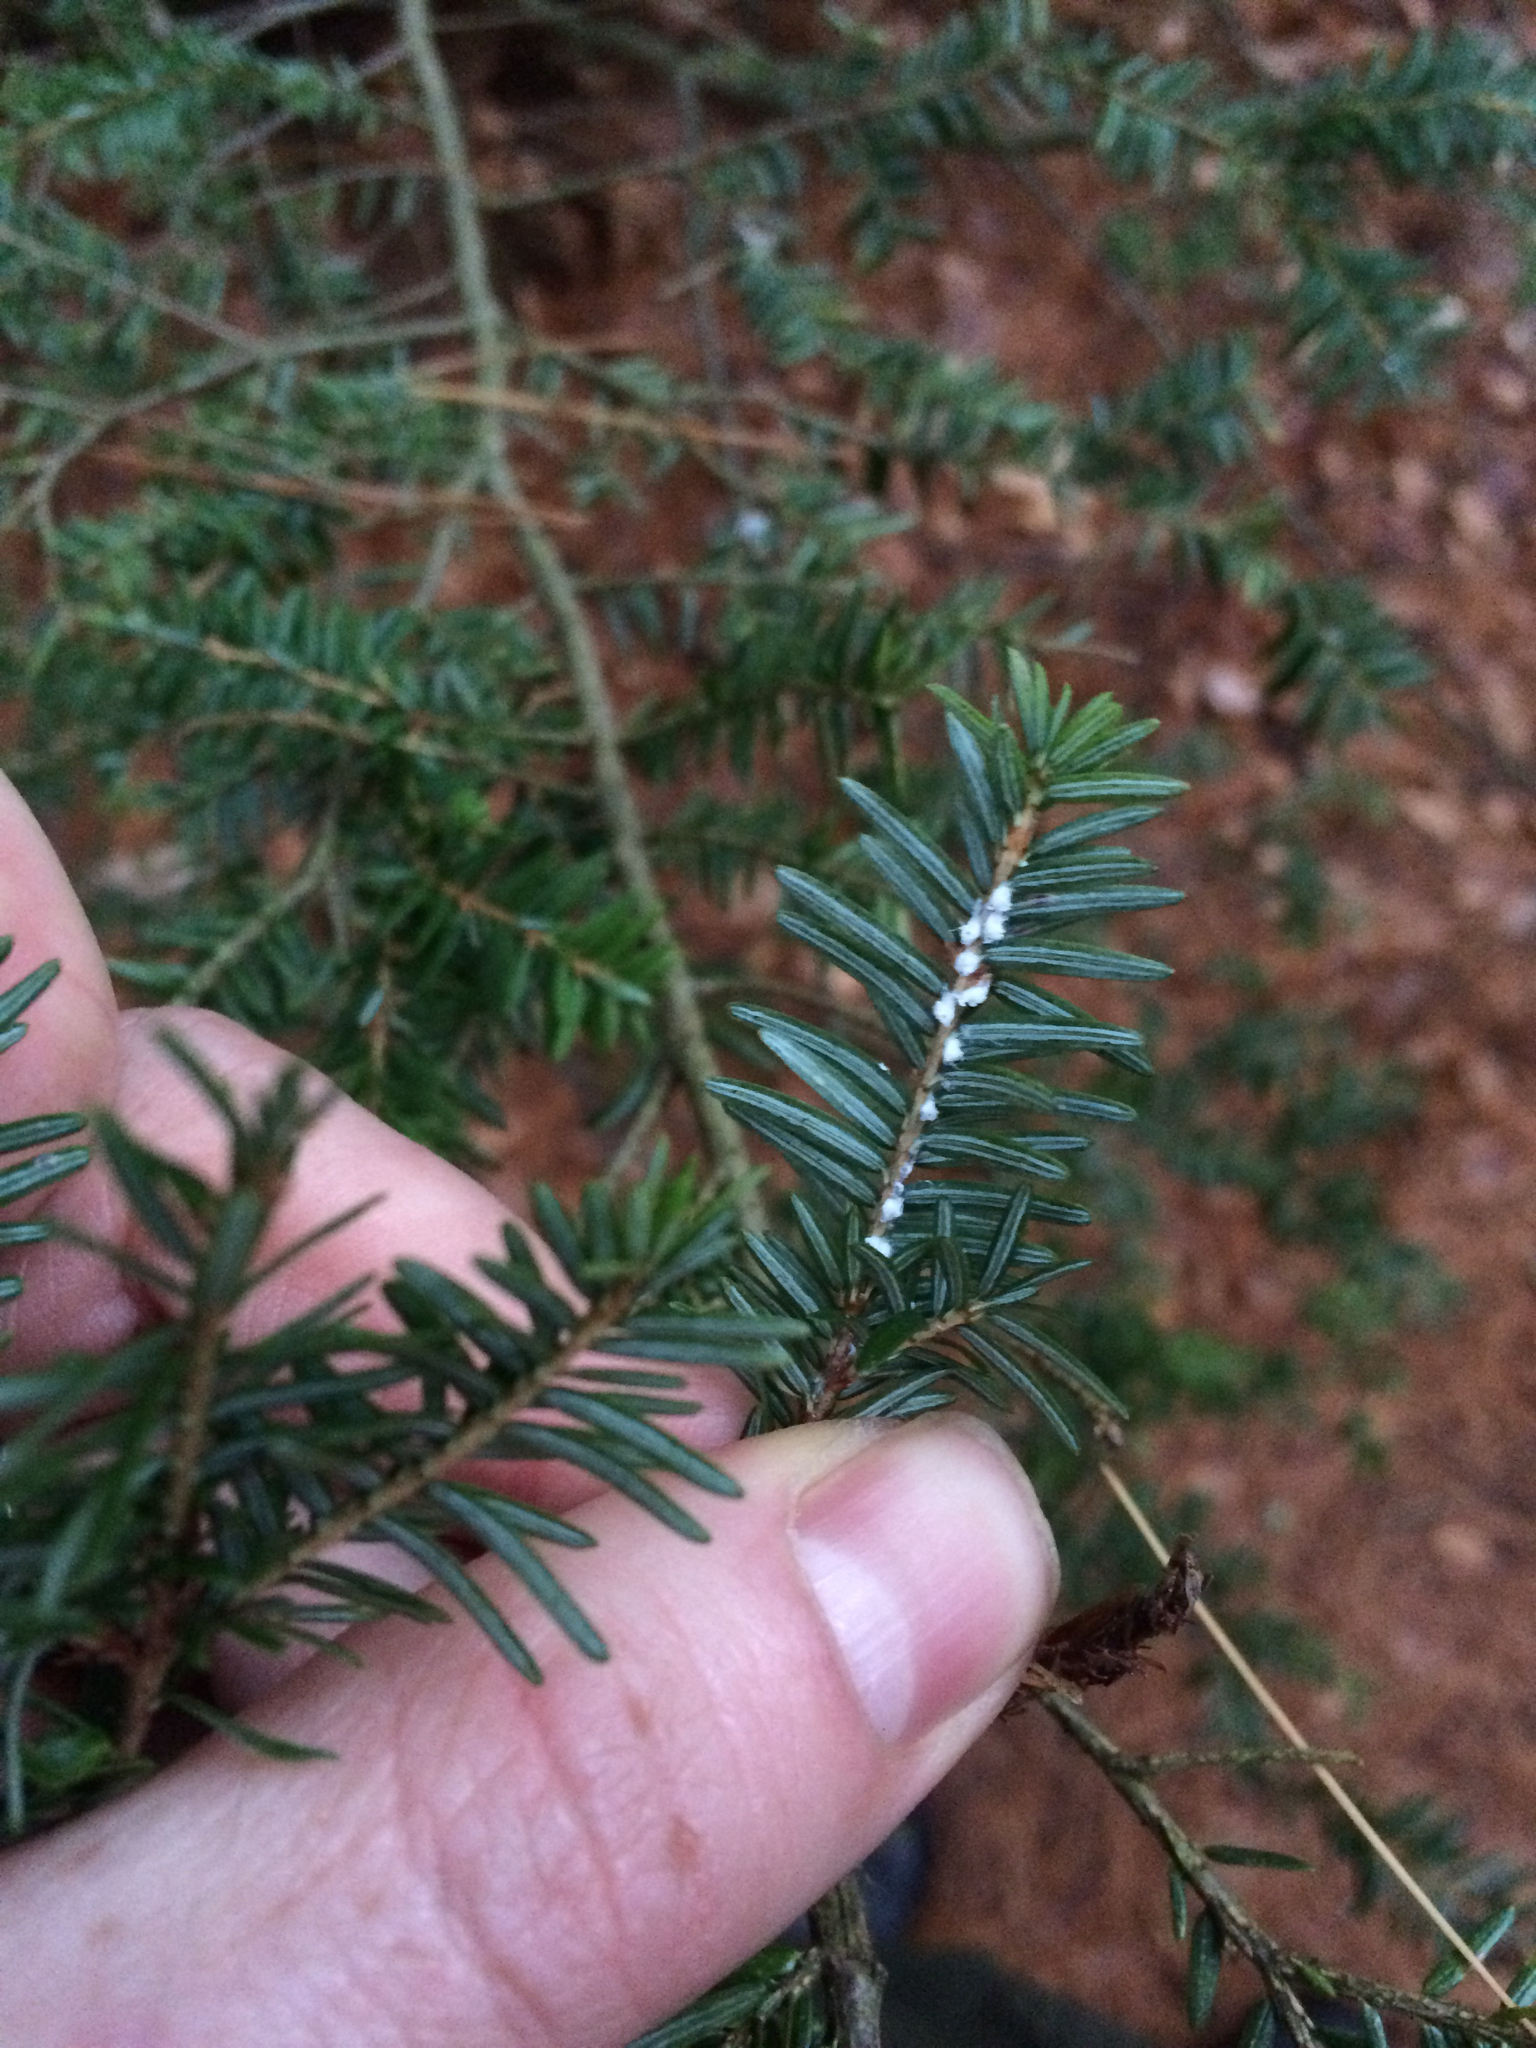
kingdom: Animalia
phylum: Arthropoda
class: Insecta
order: Hemiptera
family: Adelgidae
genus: Adelges
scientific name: Adelges tsugae
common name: Hemlock woolly adelgid
